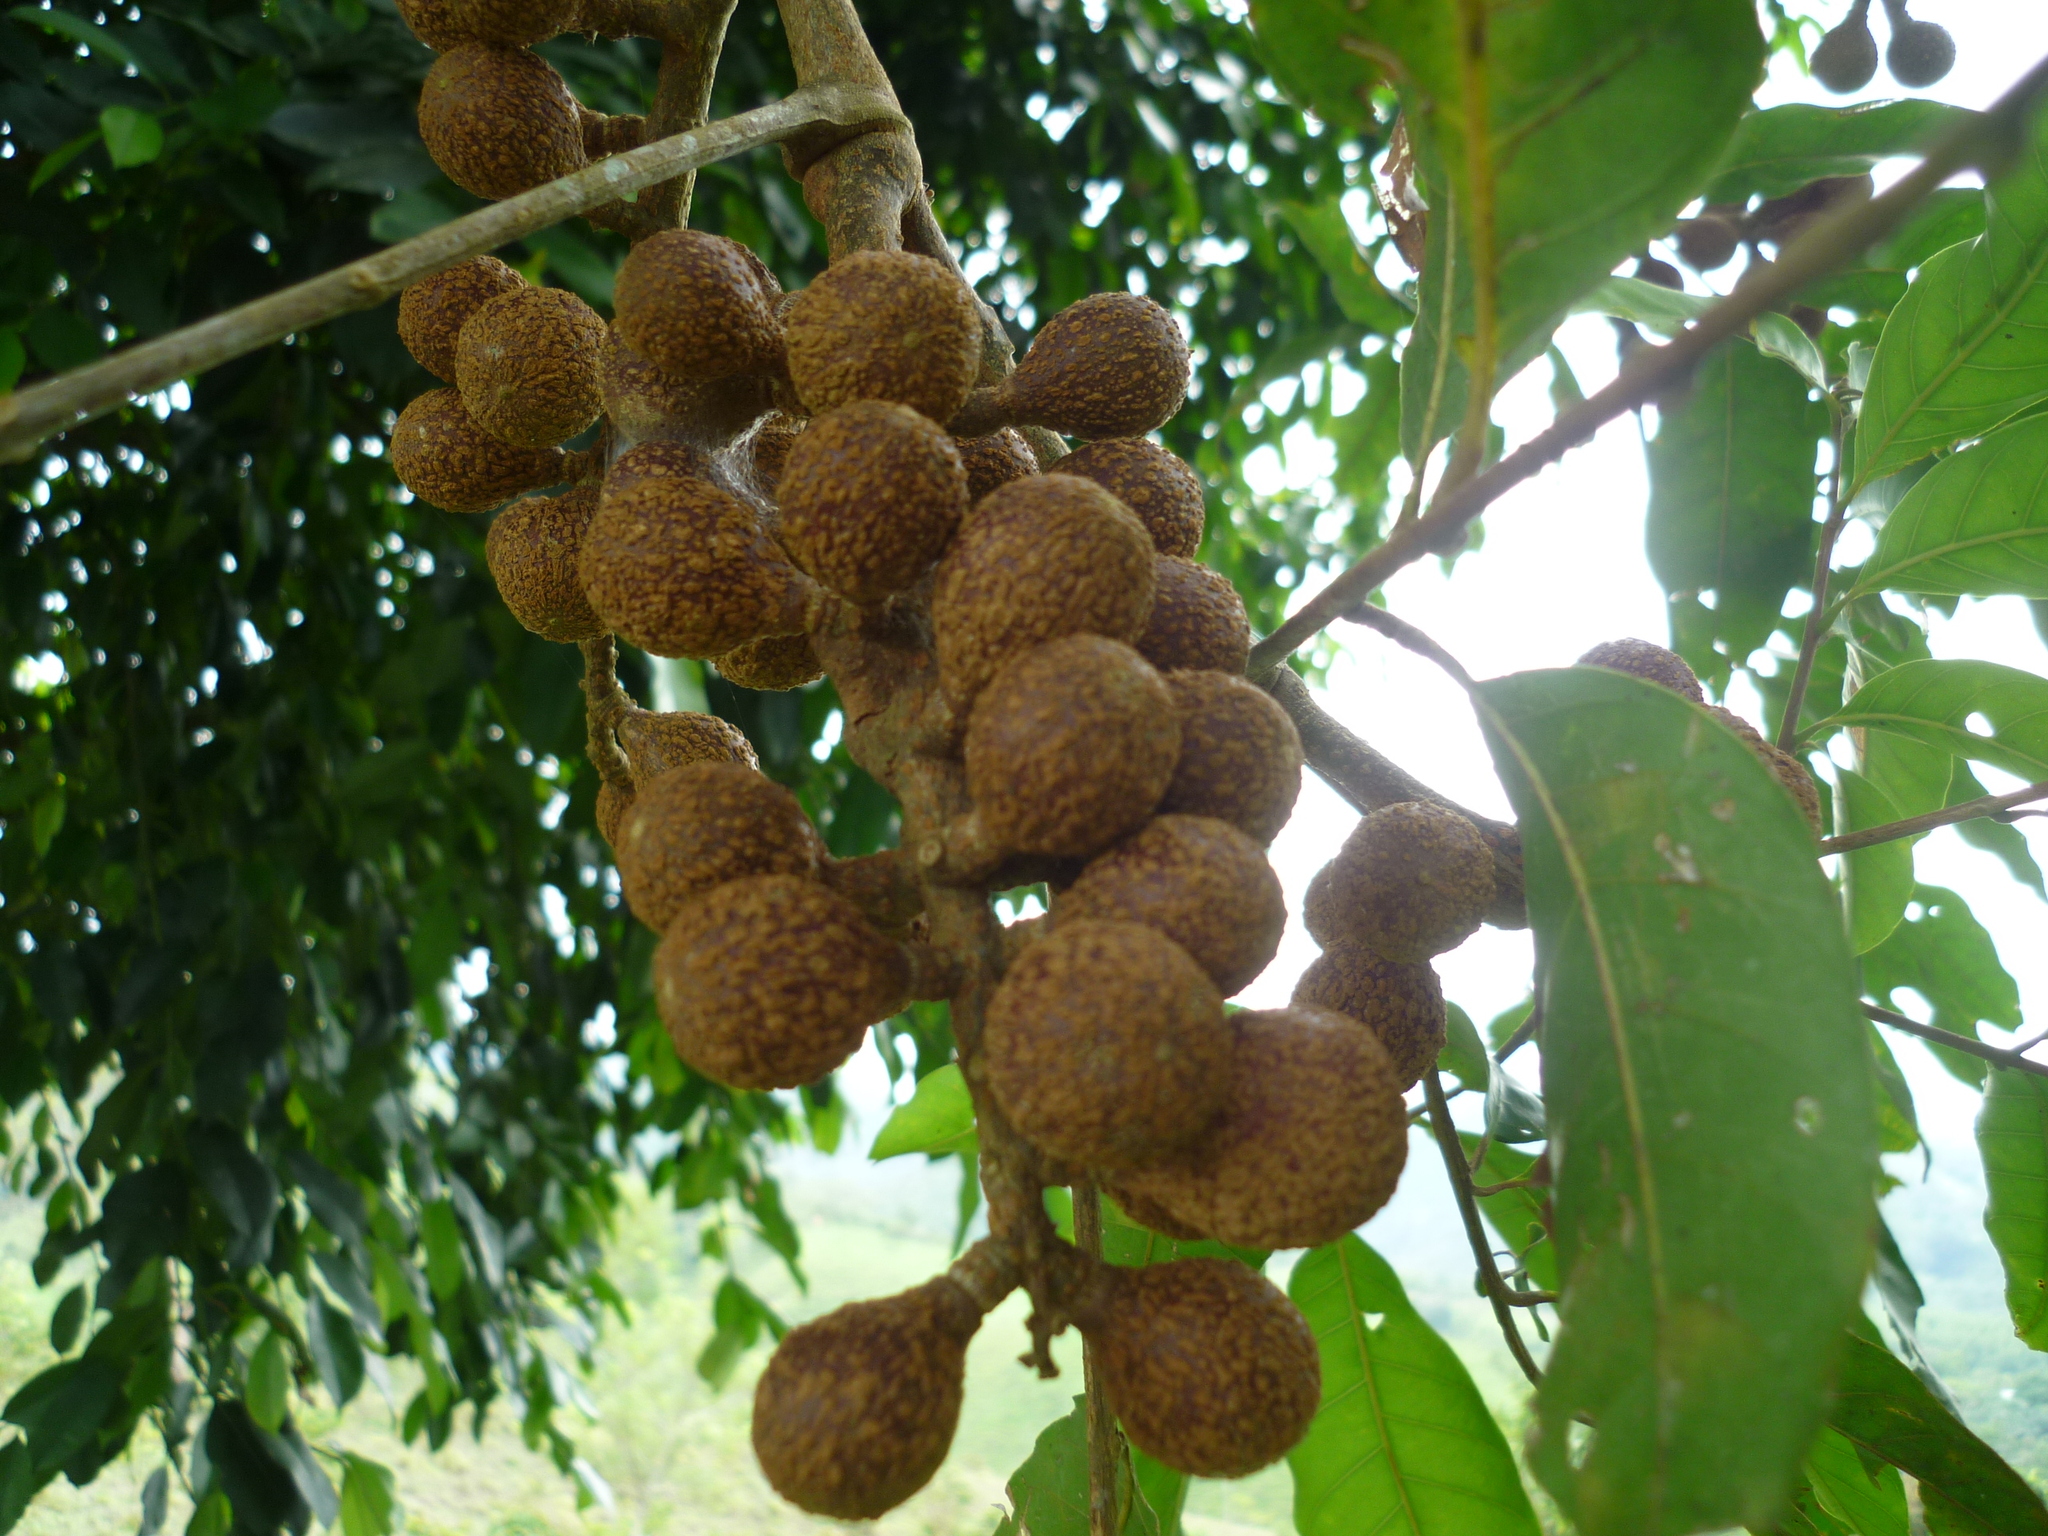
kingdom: Plantae
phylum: Tracheophyta
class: Magnoliopsida
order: Sapindales
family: Meliaceae
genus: Guarea
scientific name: Guarea guidonia
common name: American muskwood
